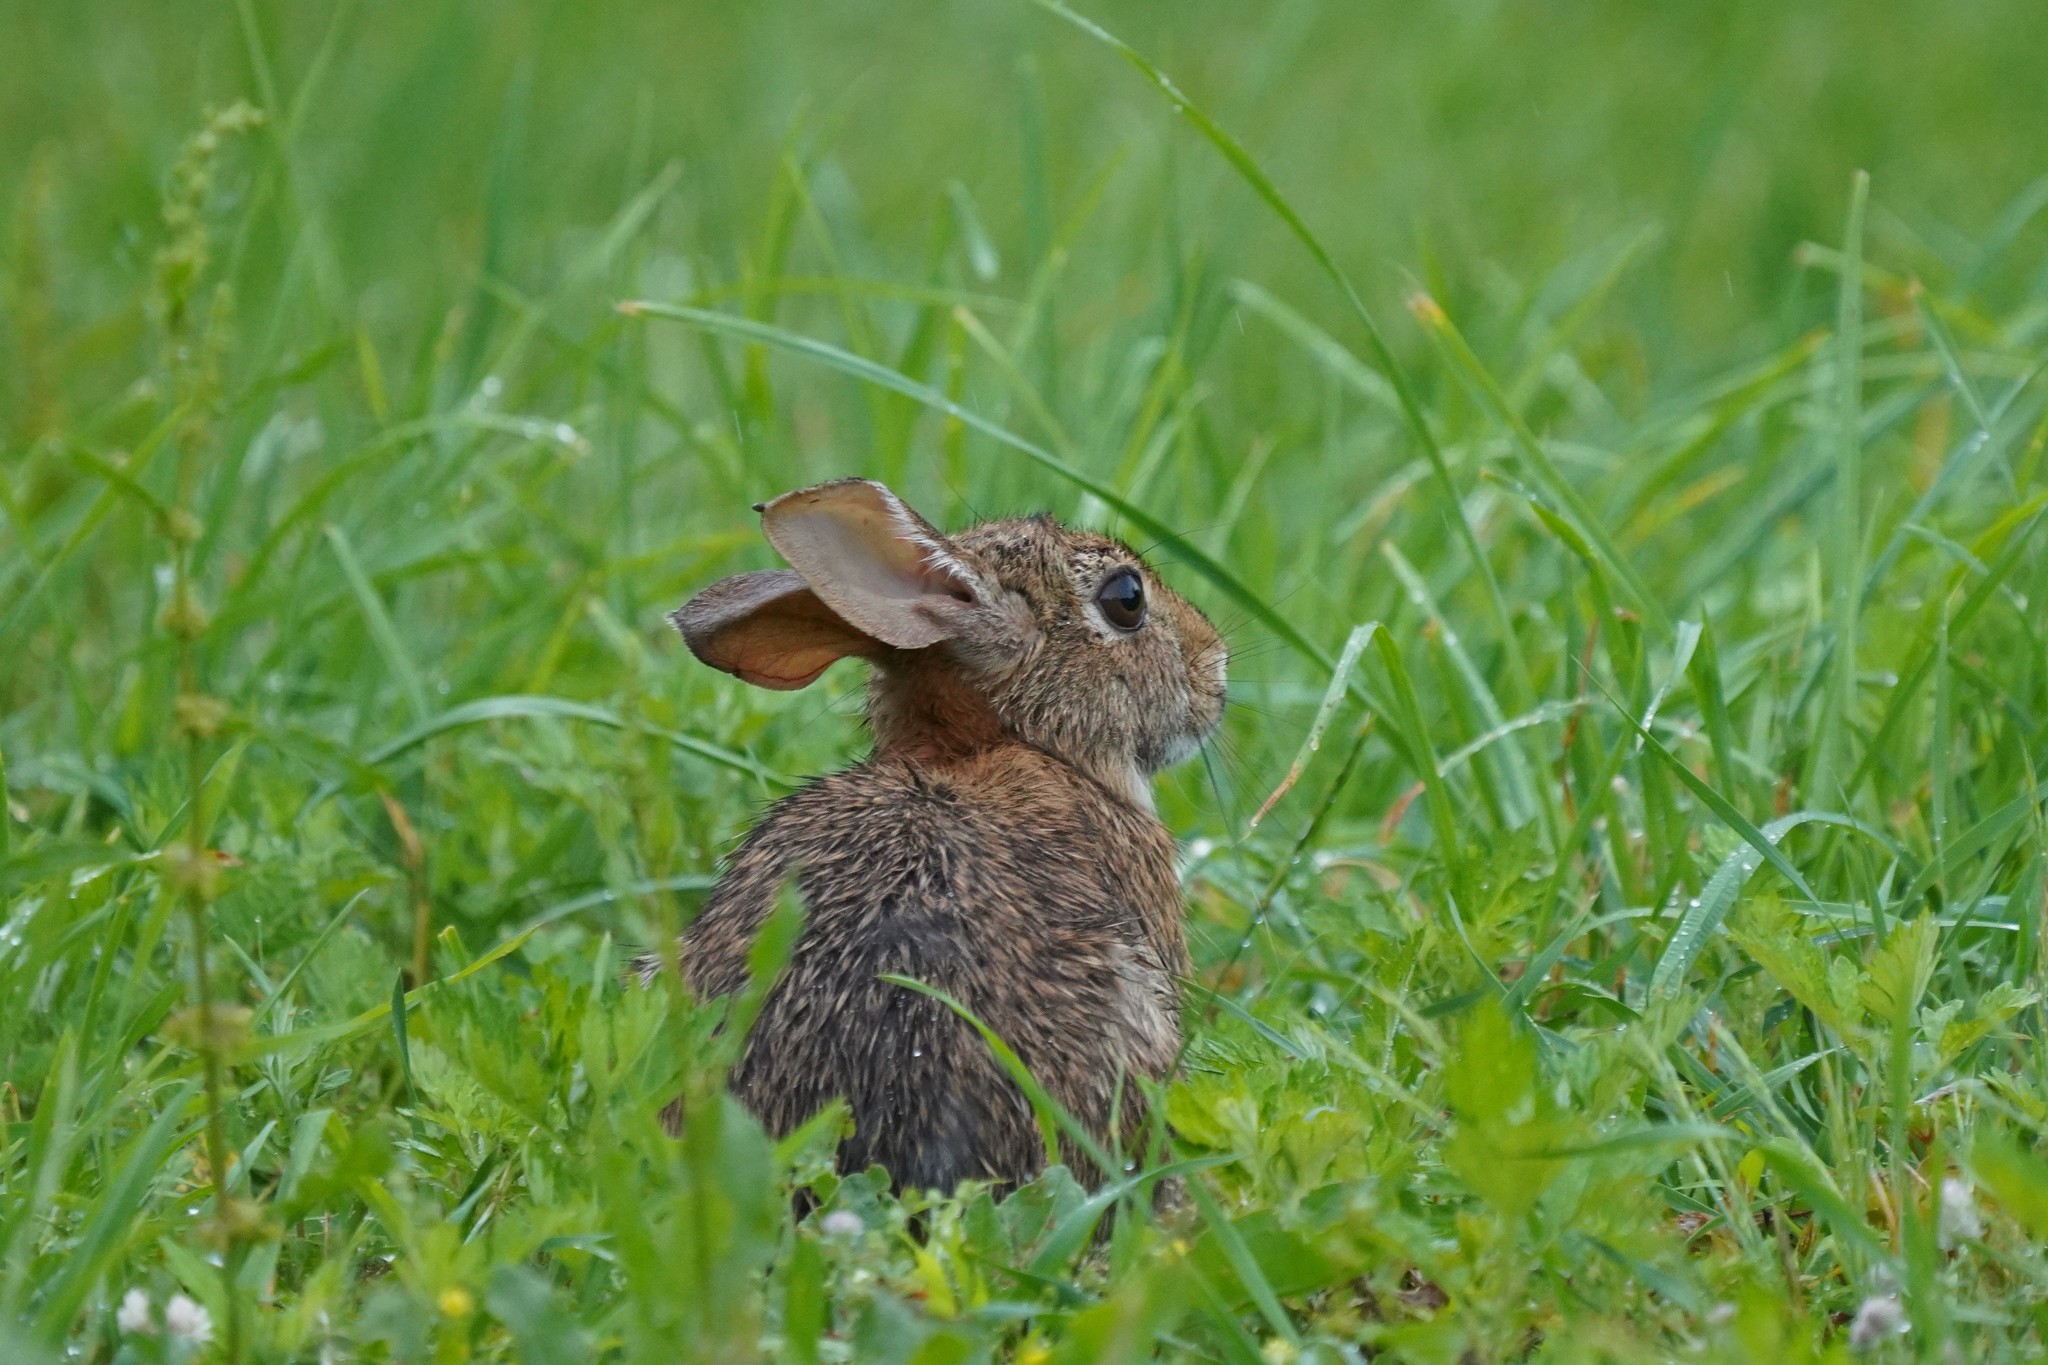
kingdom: Animalia
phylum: Chordata
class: Mammalia
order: Lagomorpha
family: Leporidae
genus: Sylvilagus
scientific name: Sylvilagus floridanus
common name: Eastern cottontail
